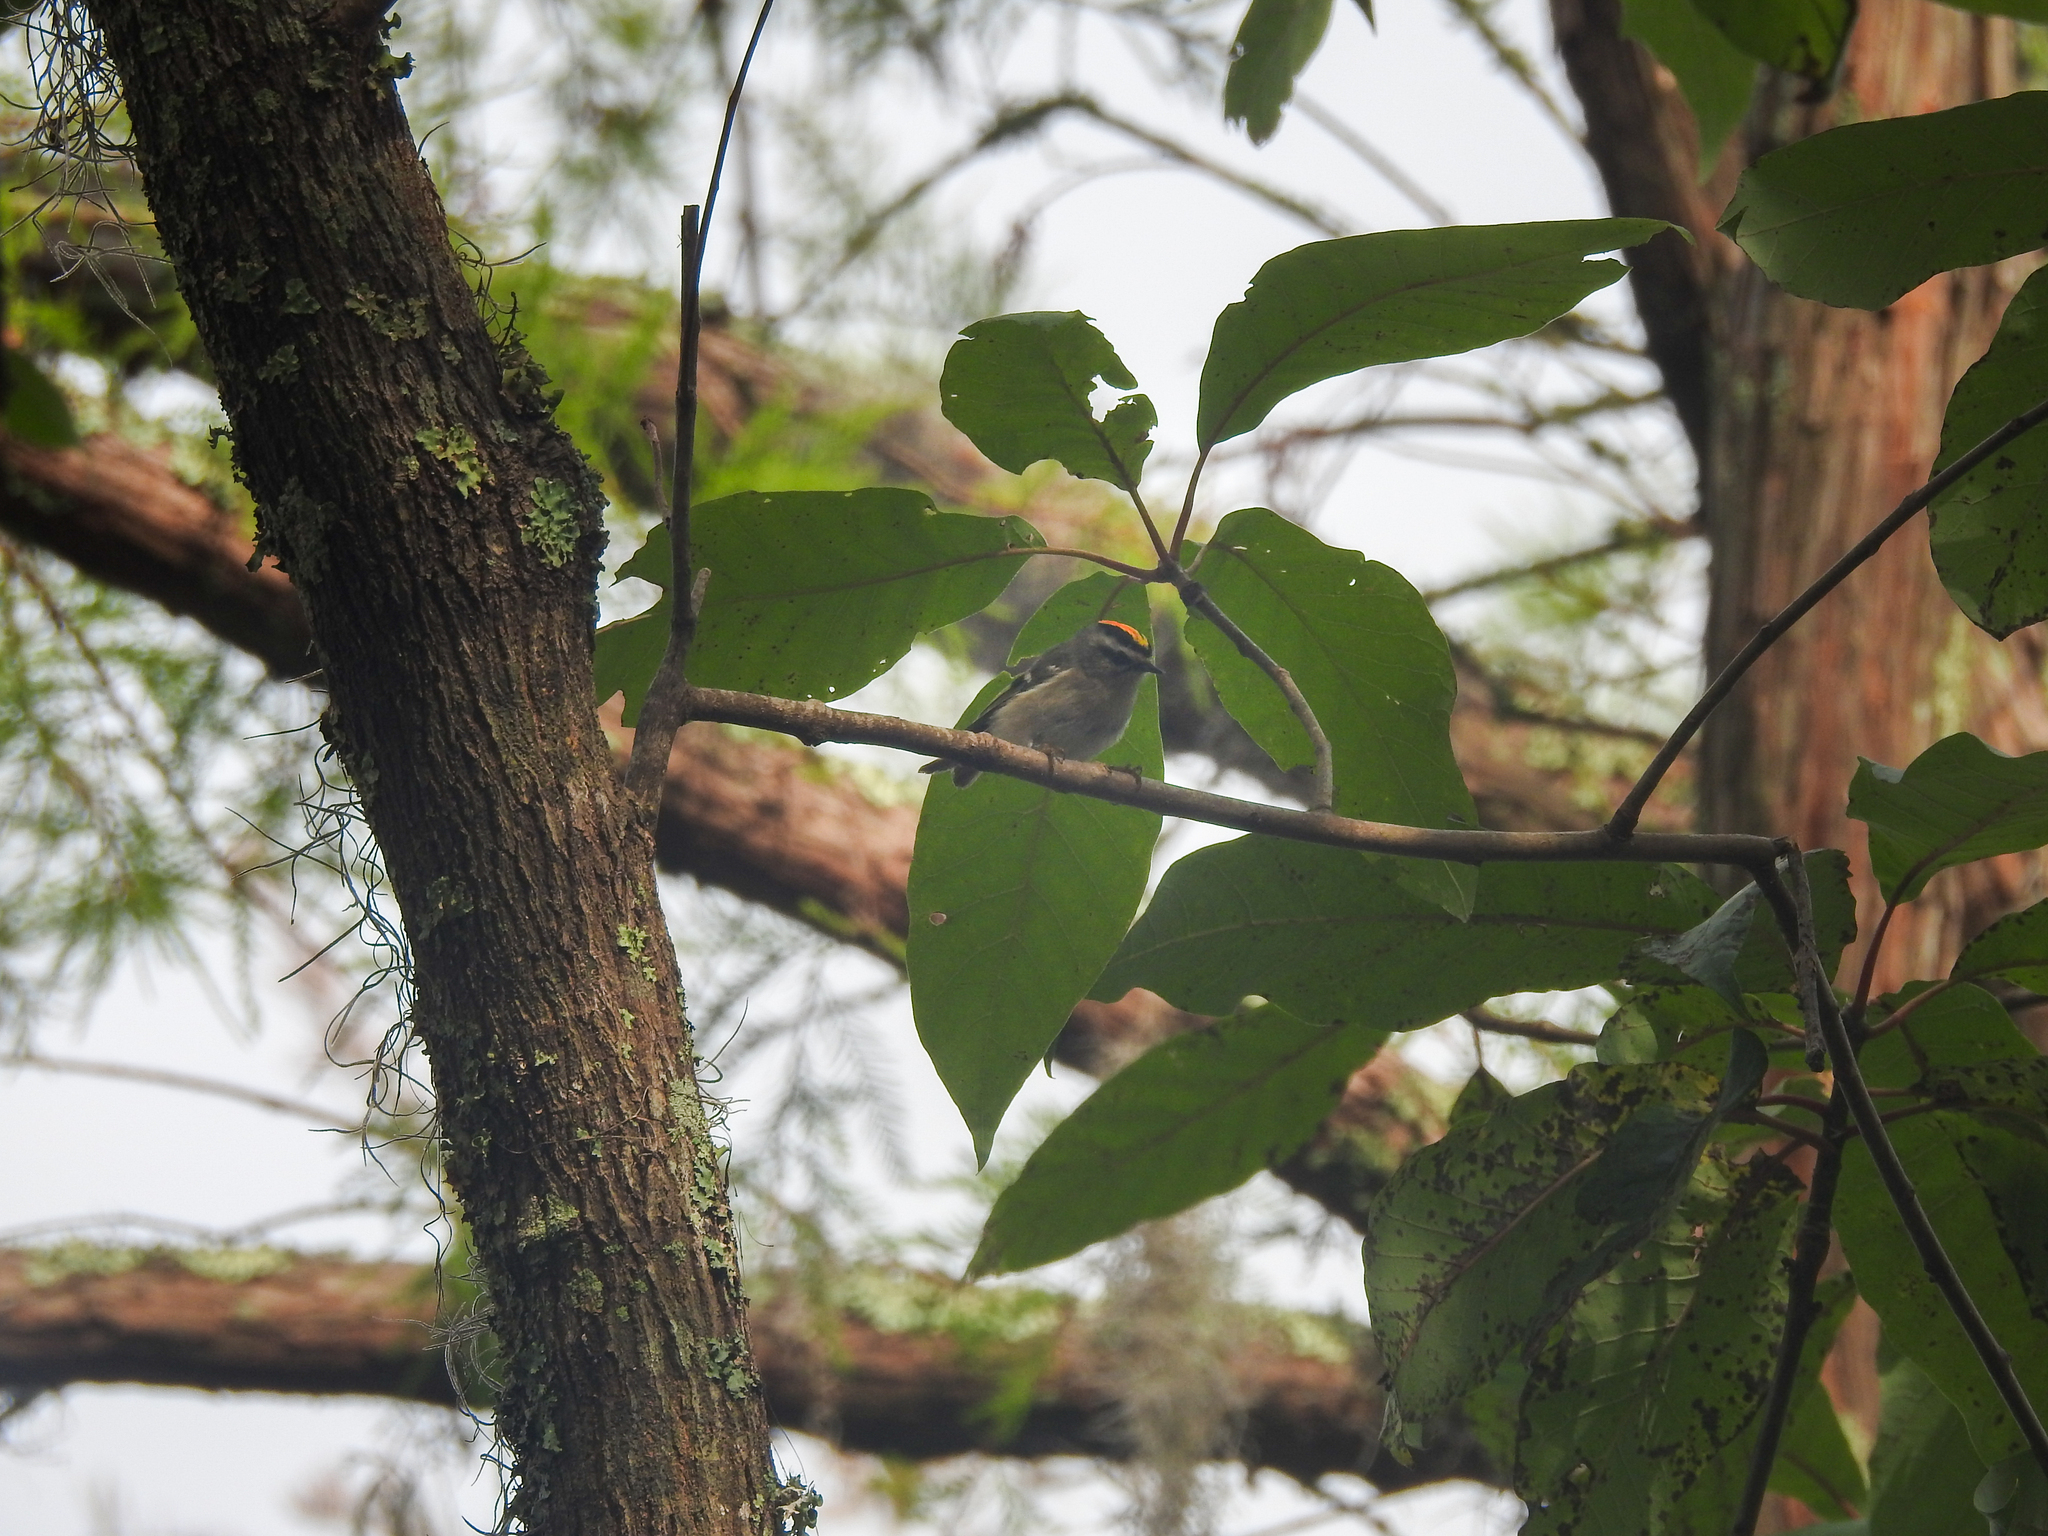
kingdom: Animalia
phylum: Chordata
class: Aves
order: Passeriformes
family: Regulidae
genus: Regulus
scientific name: Regulus satrapa
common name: Golden-crowned kinglet
